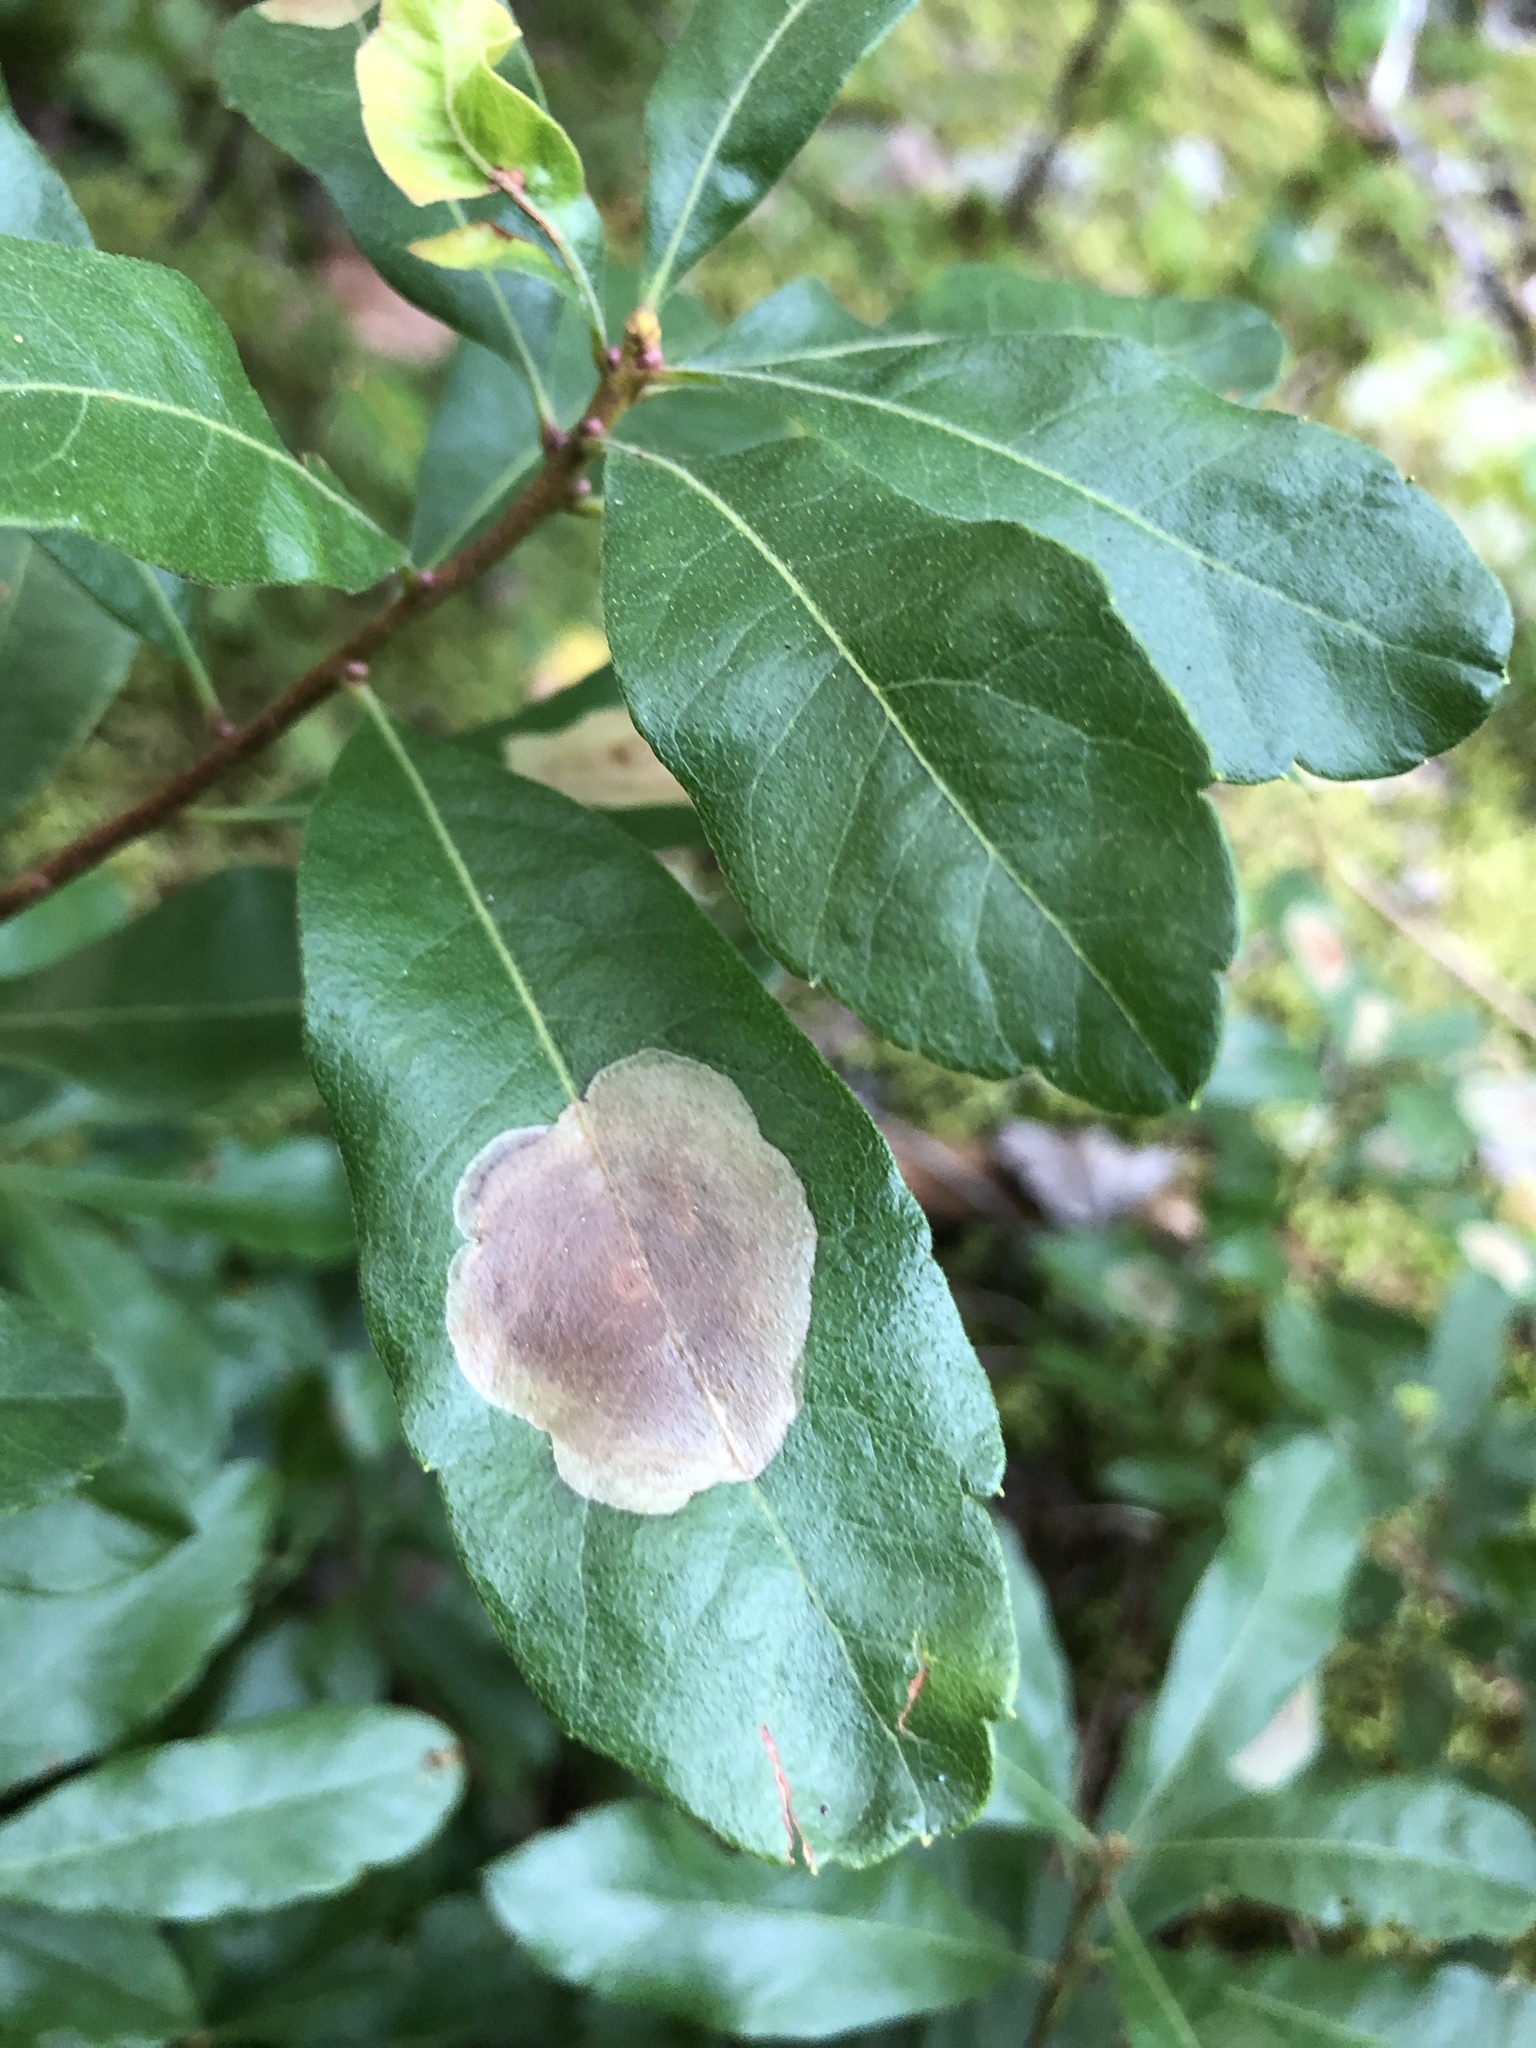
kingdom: Animalia
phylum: Arthropoda
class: Insecta
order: Lepidoptera
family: Gracillariidae
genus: Cameraria
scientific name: Cameraria picturatella
